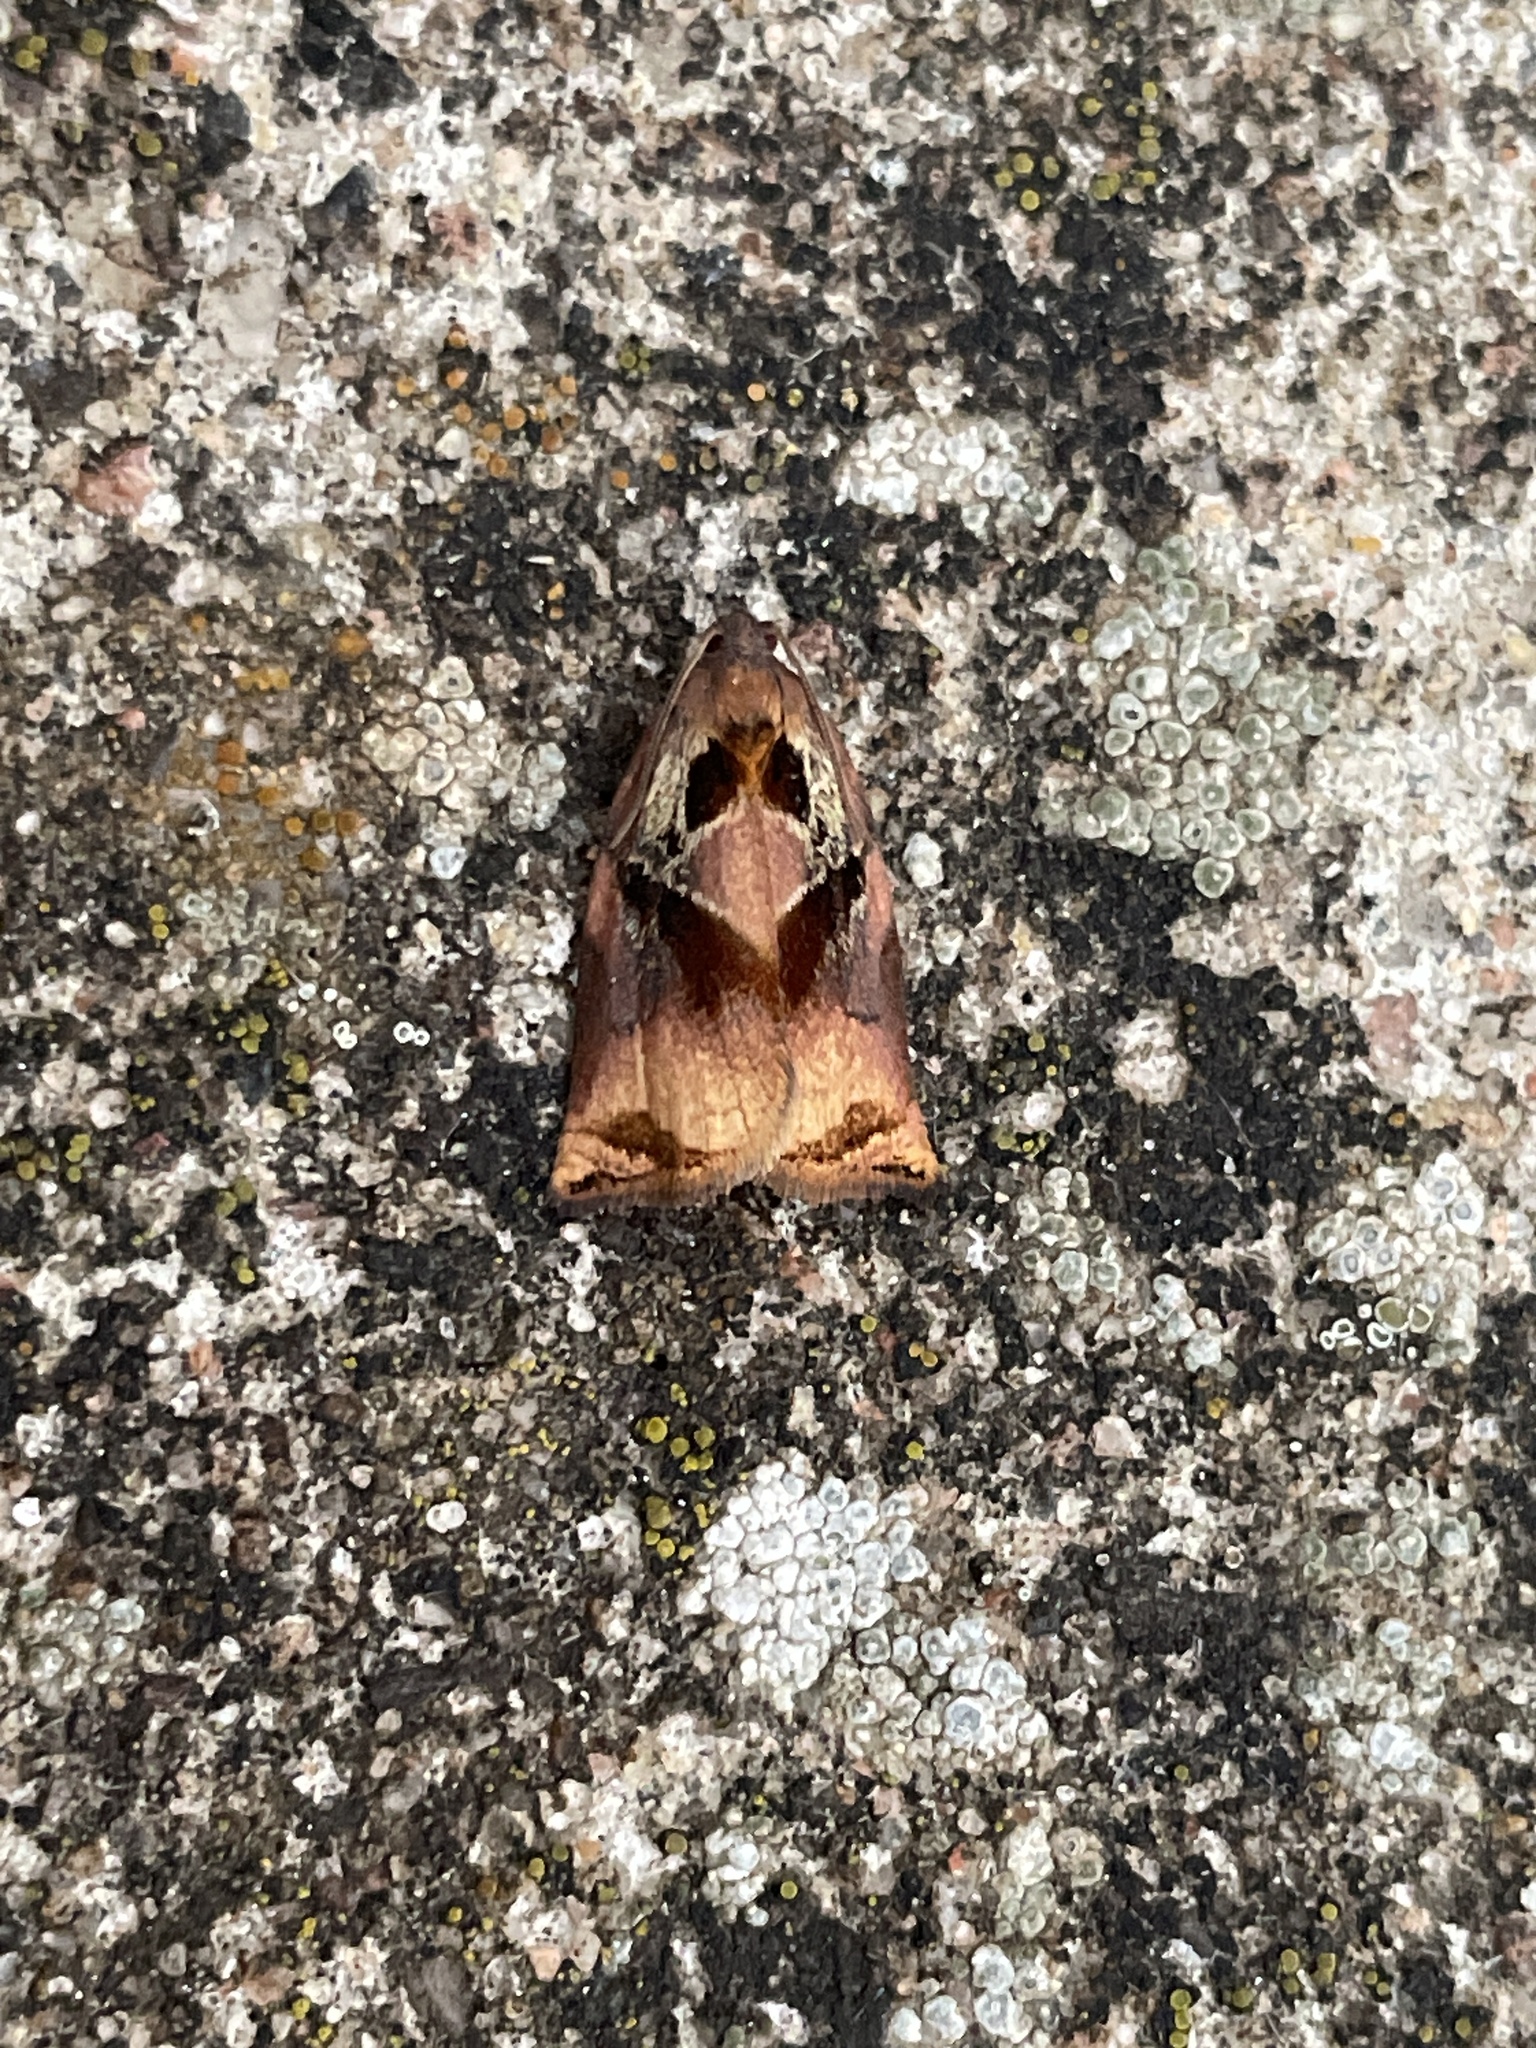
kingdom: Animalia
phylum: Arthropoda
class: Insecta
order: Lepidoptera
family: Tortricidae
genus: Archips
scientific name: Archips podana
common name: Large fruit-tree tortrix
